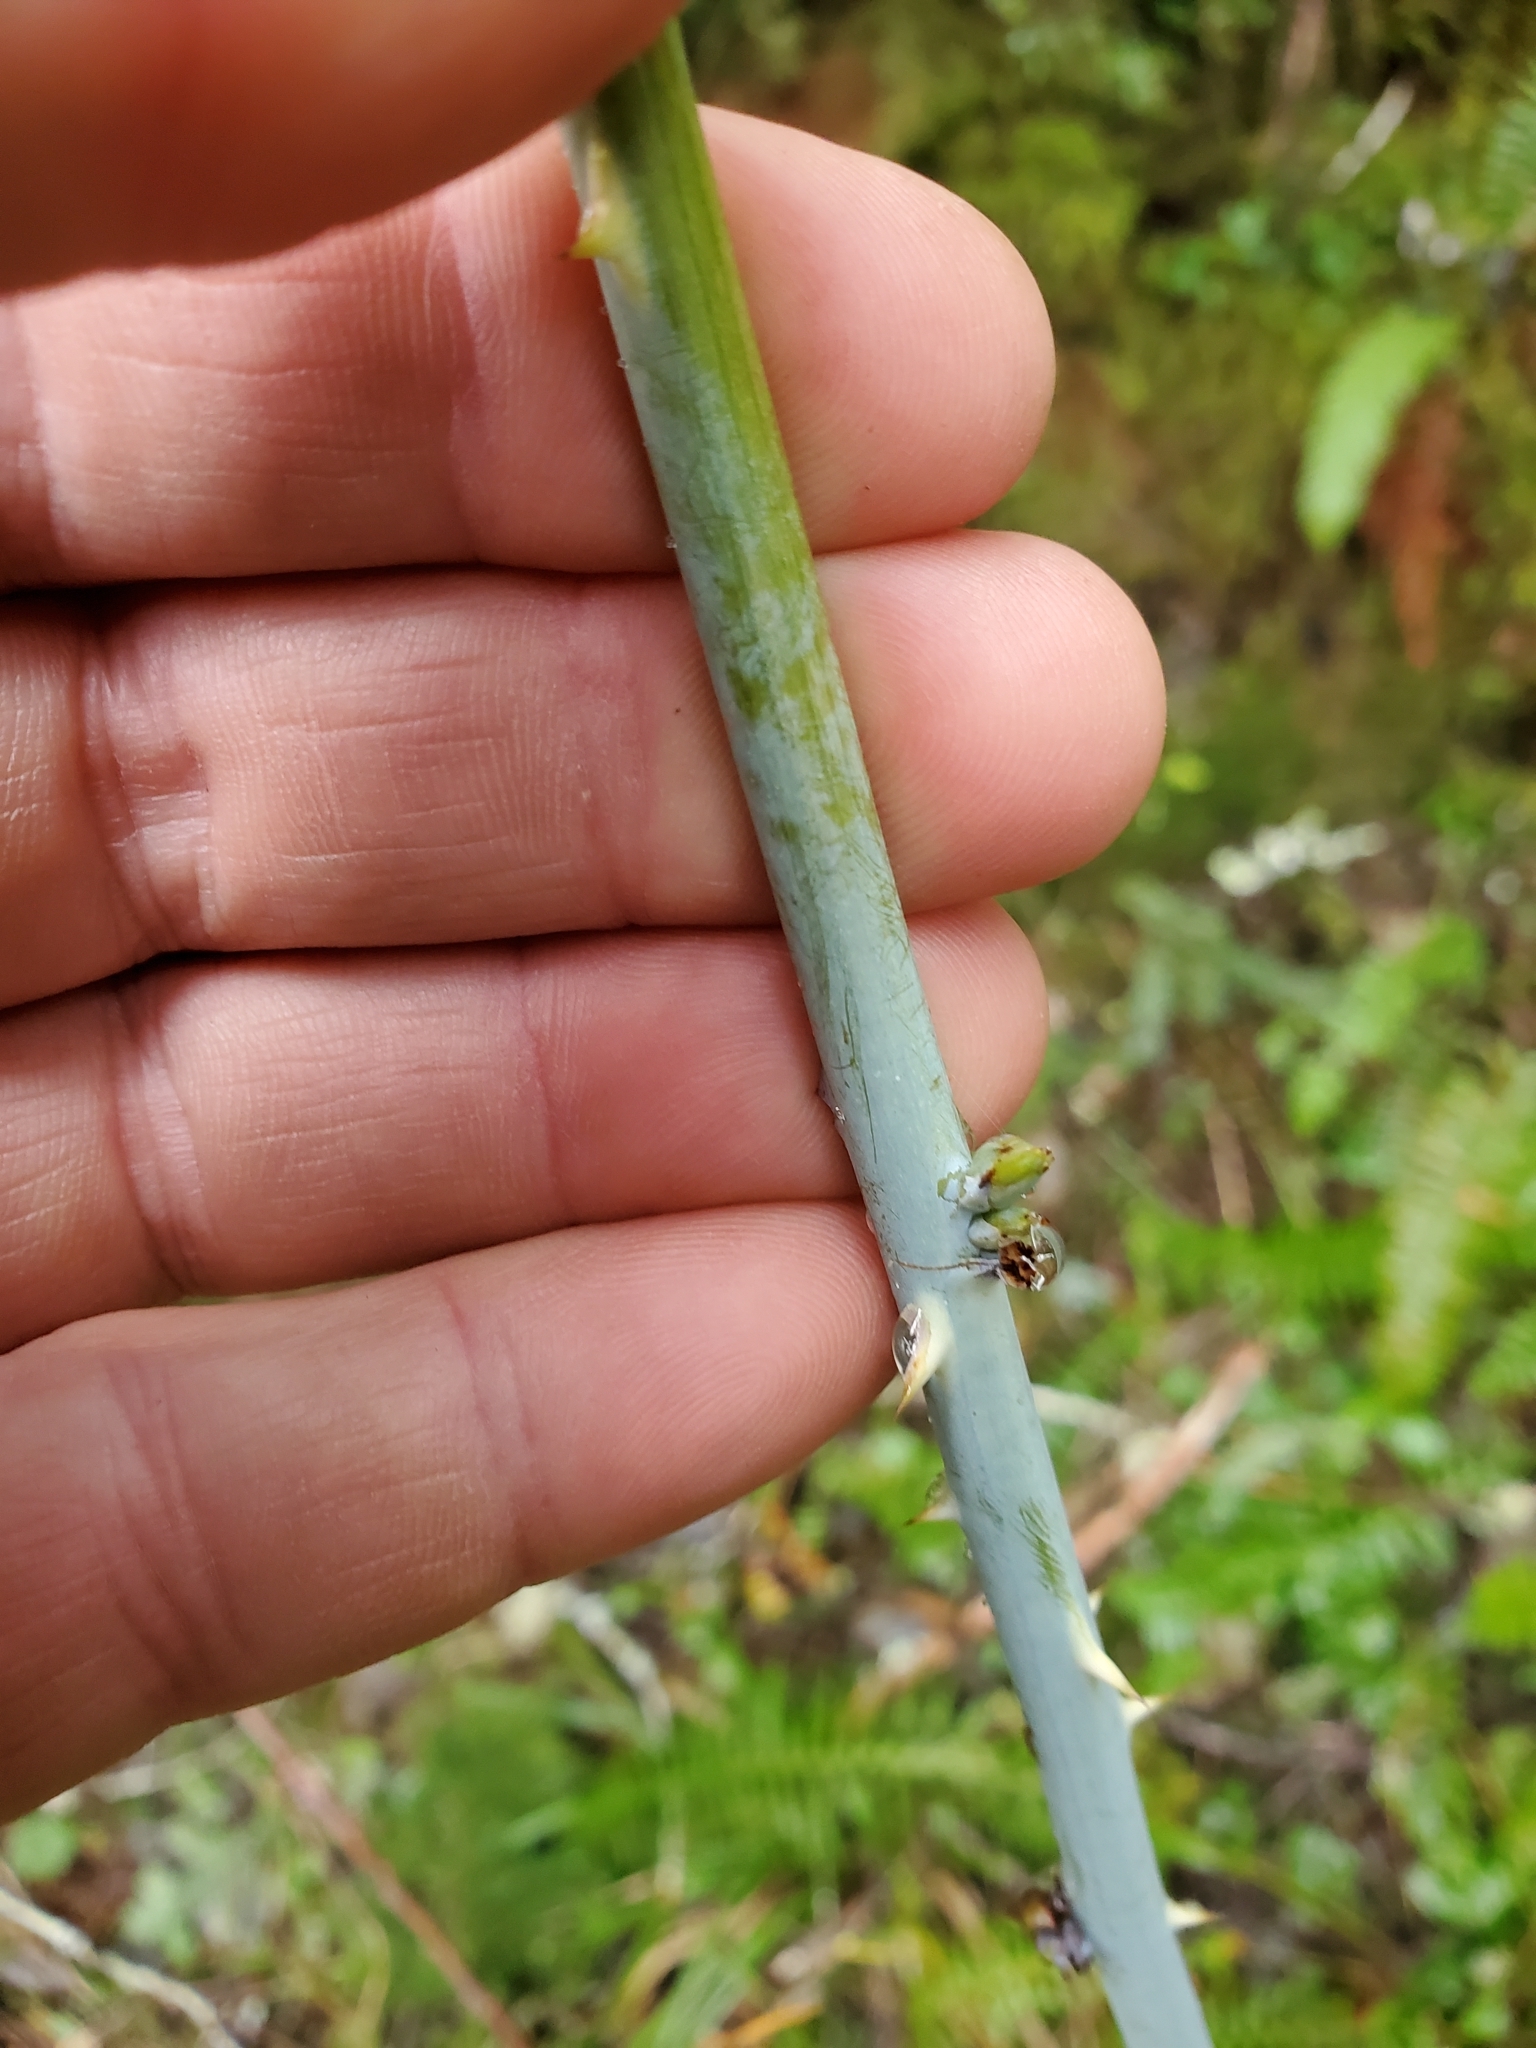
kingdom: Plantae
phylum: Tracheophyta
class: Magnoliopsida
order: Rosales
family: Rosaceae
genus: Rubus
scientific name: Rubus leucodermis
